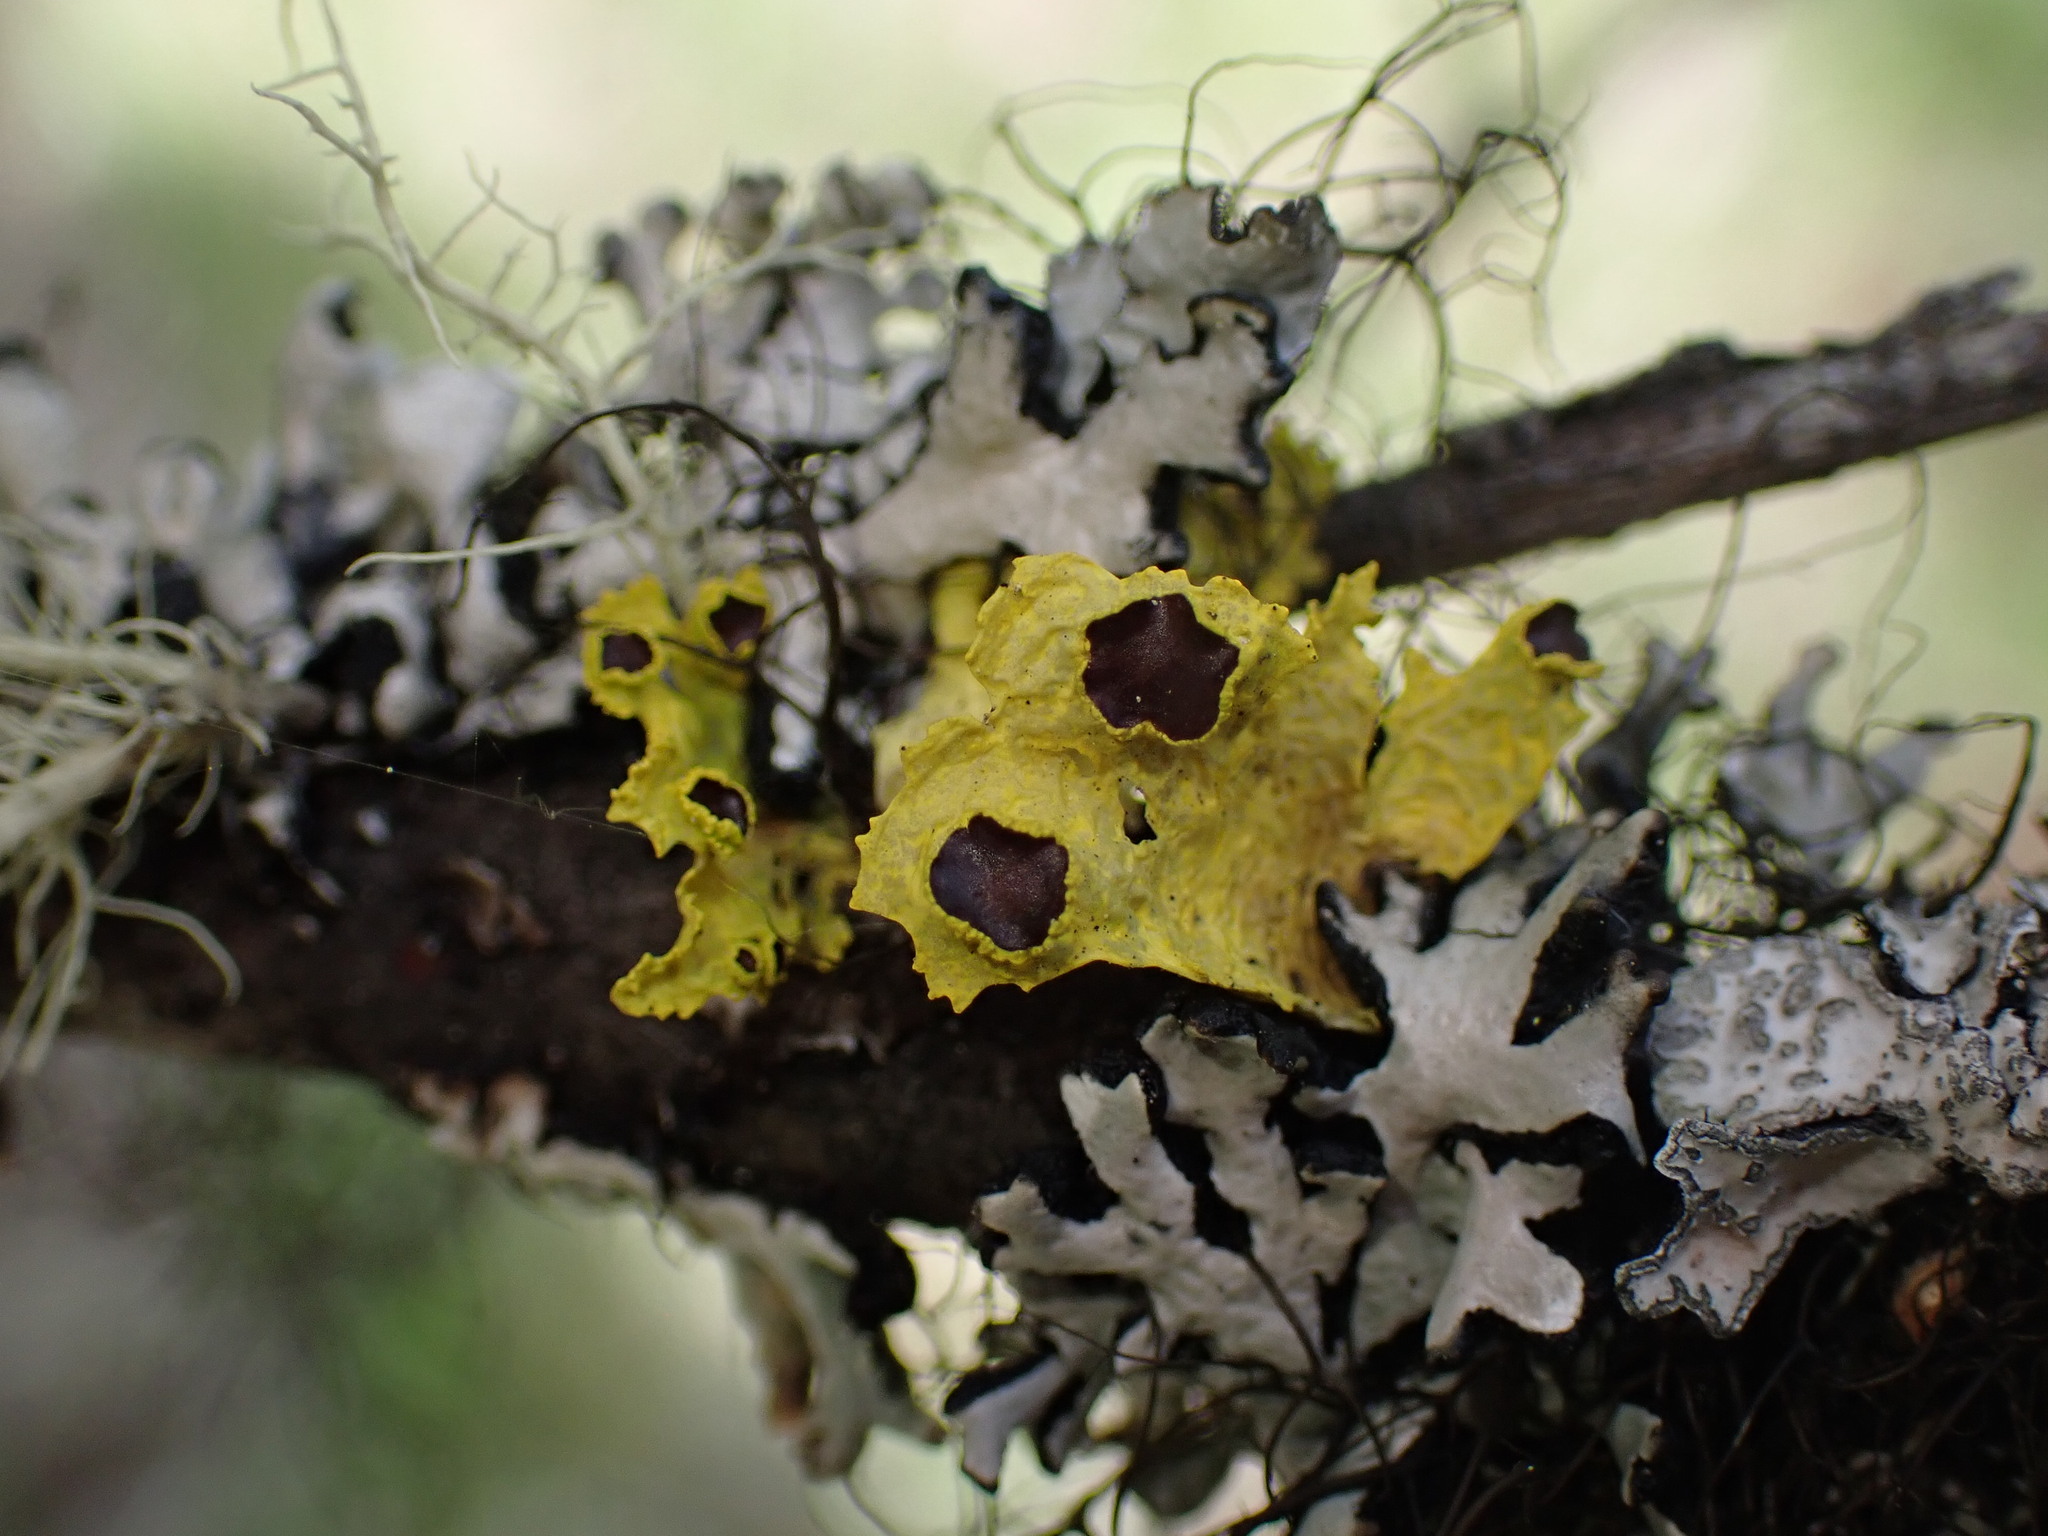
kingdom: Fungi
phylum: Ascomycota
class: Lecanoromycetes
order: Lecanorales
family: Parmeliaceae
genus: Vulpicida
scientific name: Vulpicida canadensis
